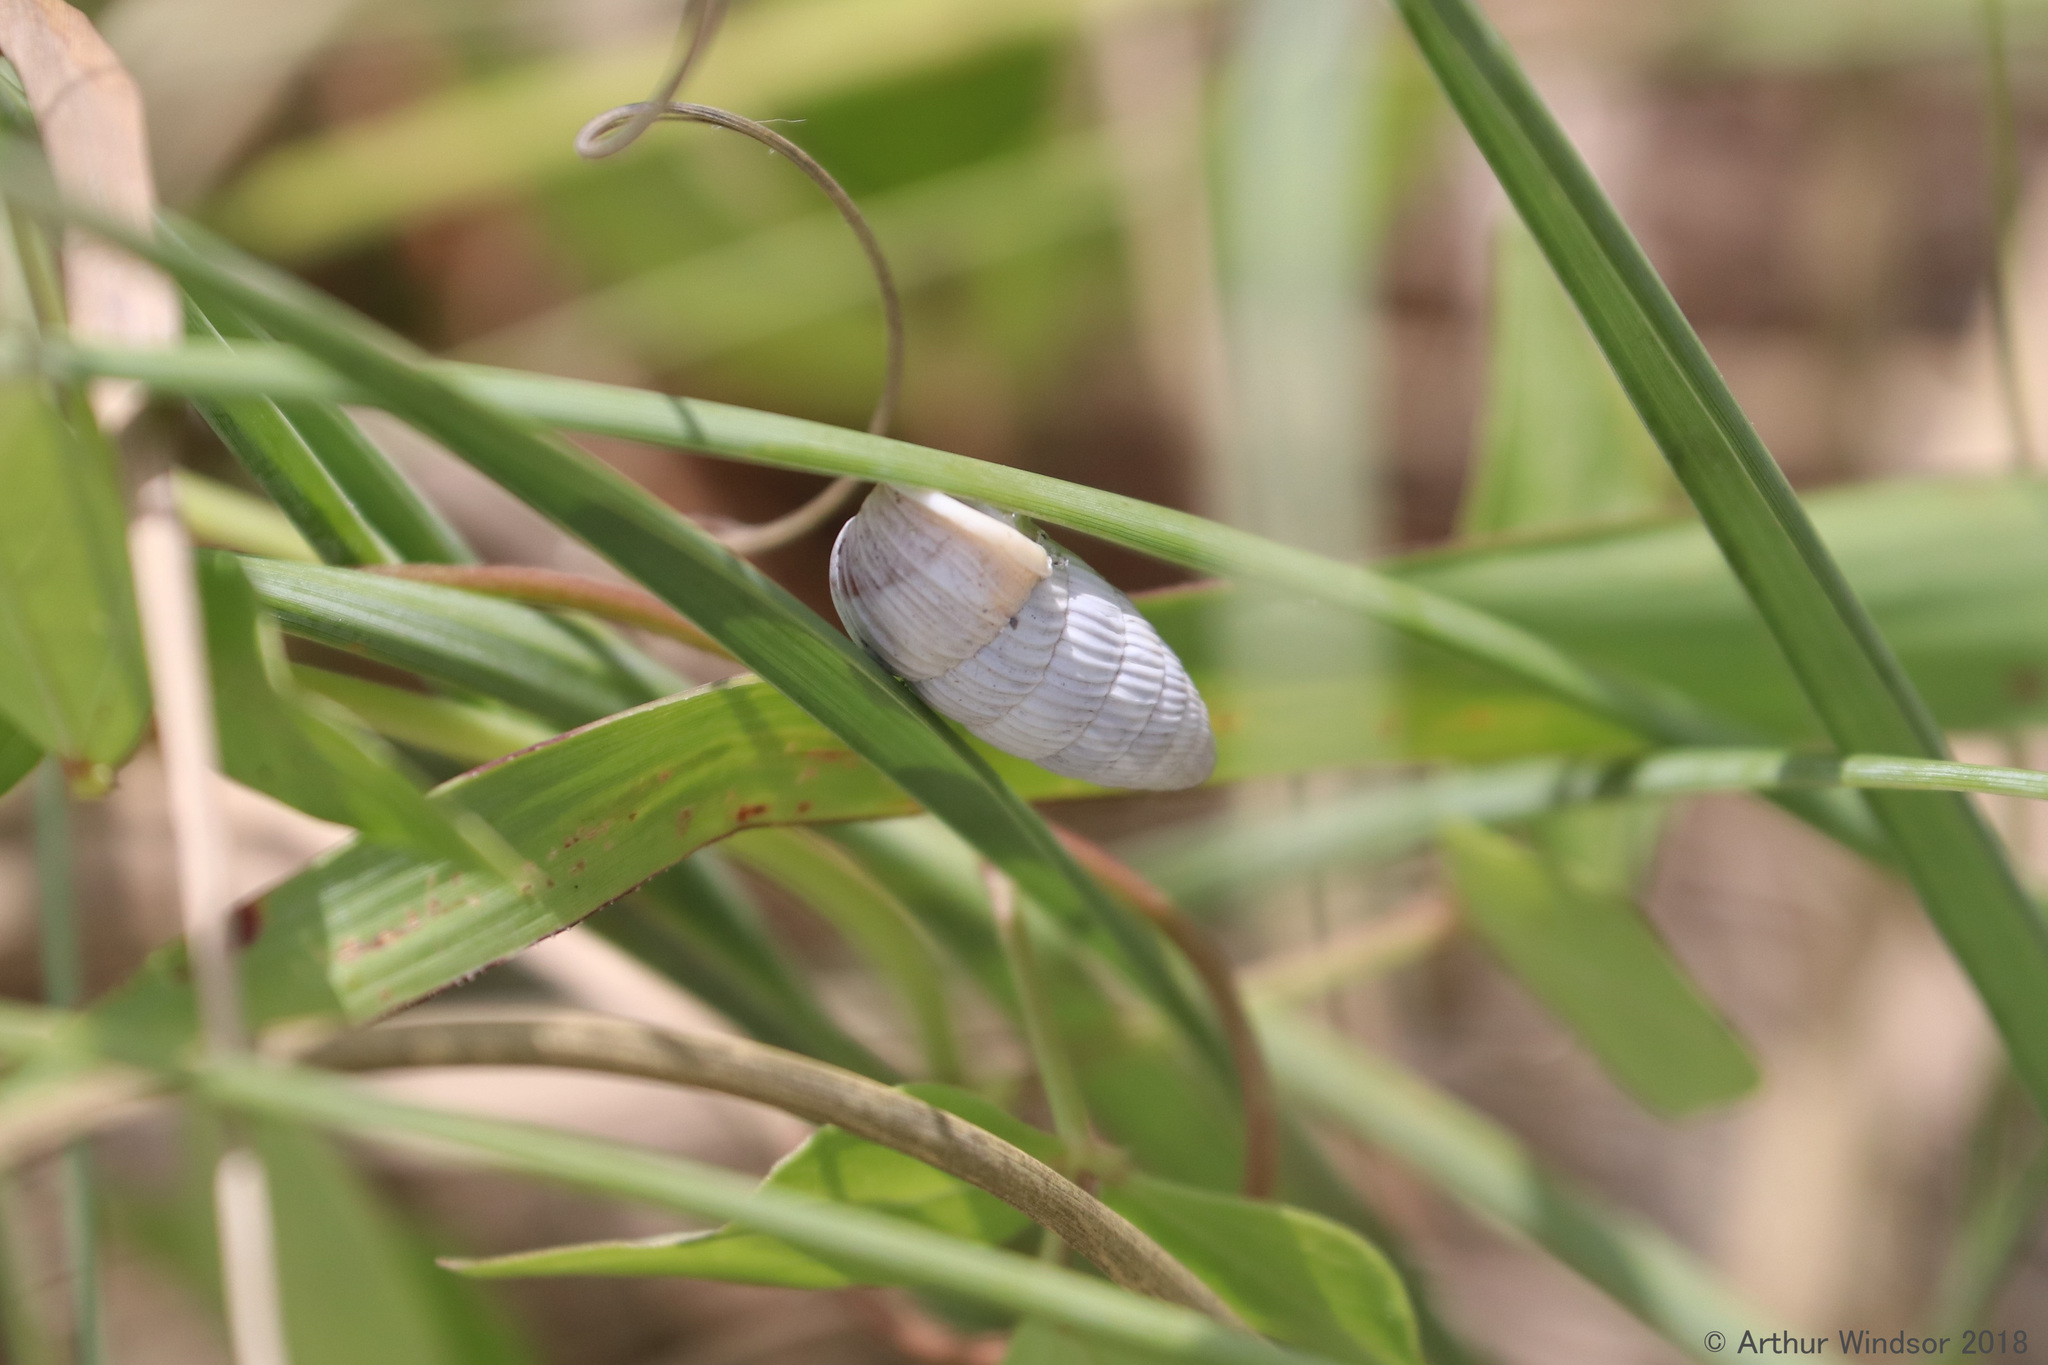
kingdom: Animalia
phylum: Mollusca
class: Gastropoda
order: Stylommatophora
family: Cerionidae
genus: Cerion
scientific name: Cerion tridentatum
